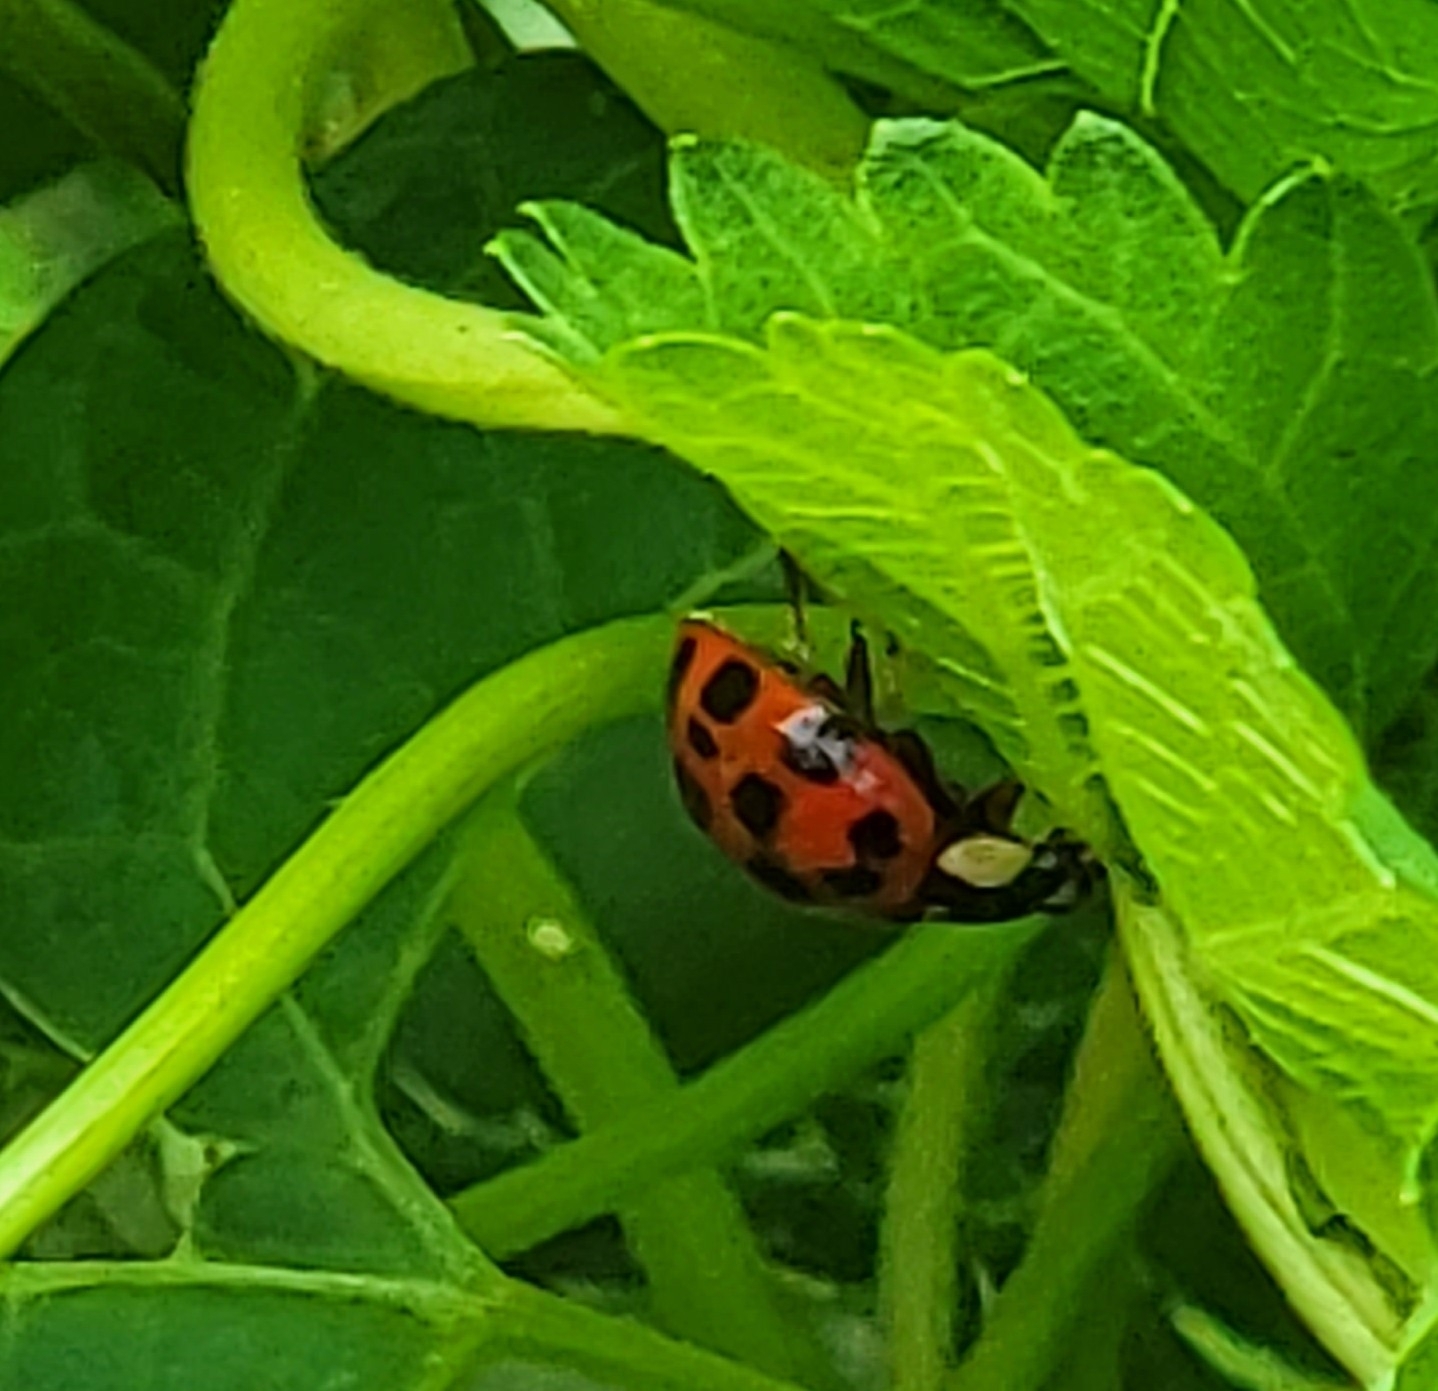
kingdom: Animalia
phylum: Arthropoda
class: Insecta
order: Coleoptera
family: Coccinellidae
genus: Harmonia
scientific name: Harmonia axyridis
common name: Harlequin ladybird
